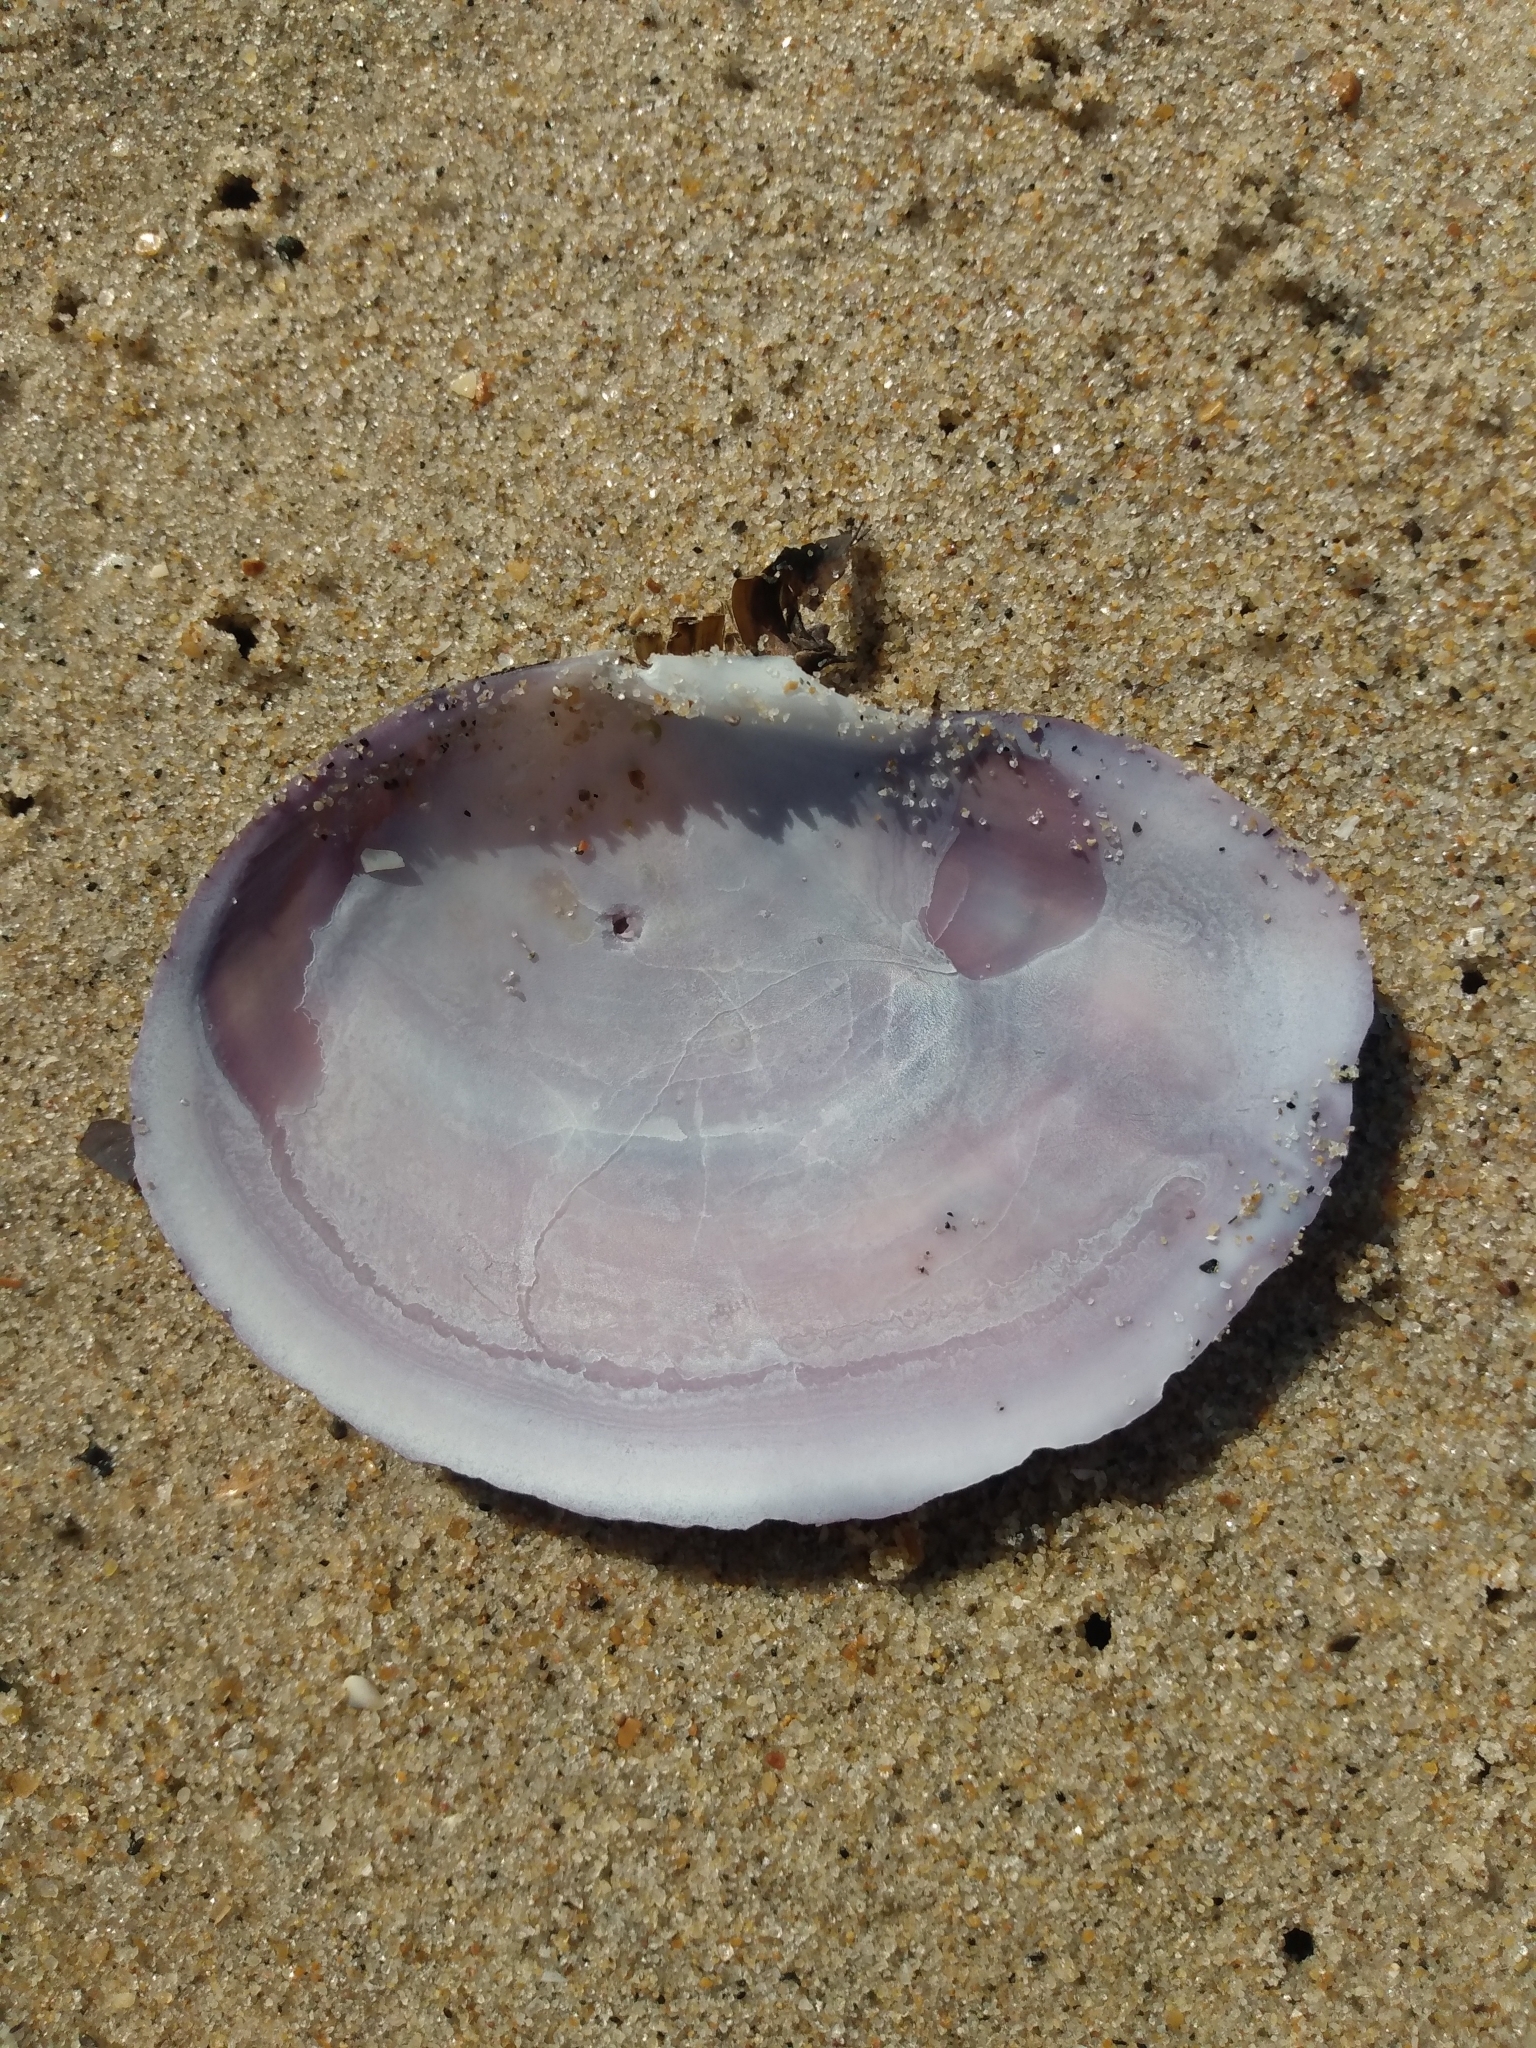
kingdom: Animalia
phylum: Mollusca
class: Bivalvia
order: Cardiida
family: Psammobiidae
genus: Nuttallia
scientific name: Nuttallia nuttallii
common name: California mahogany-clam
